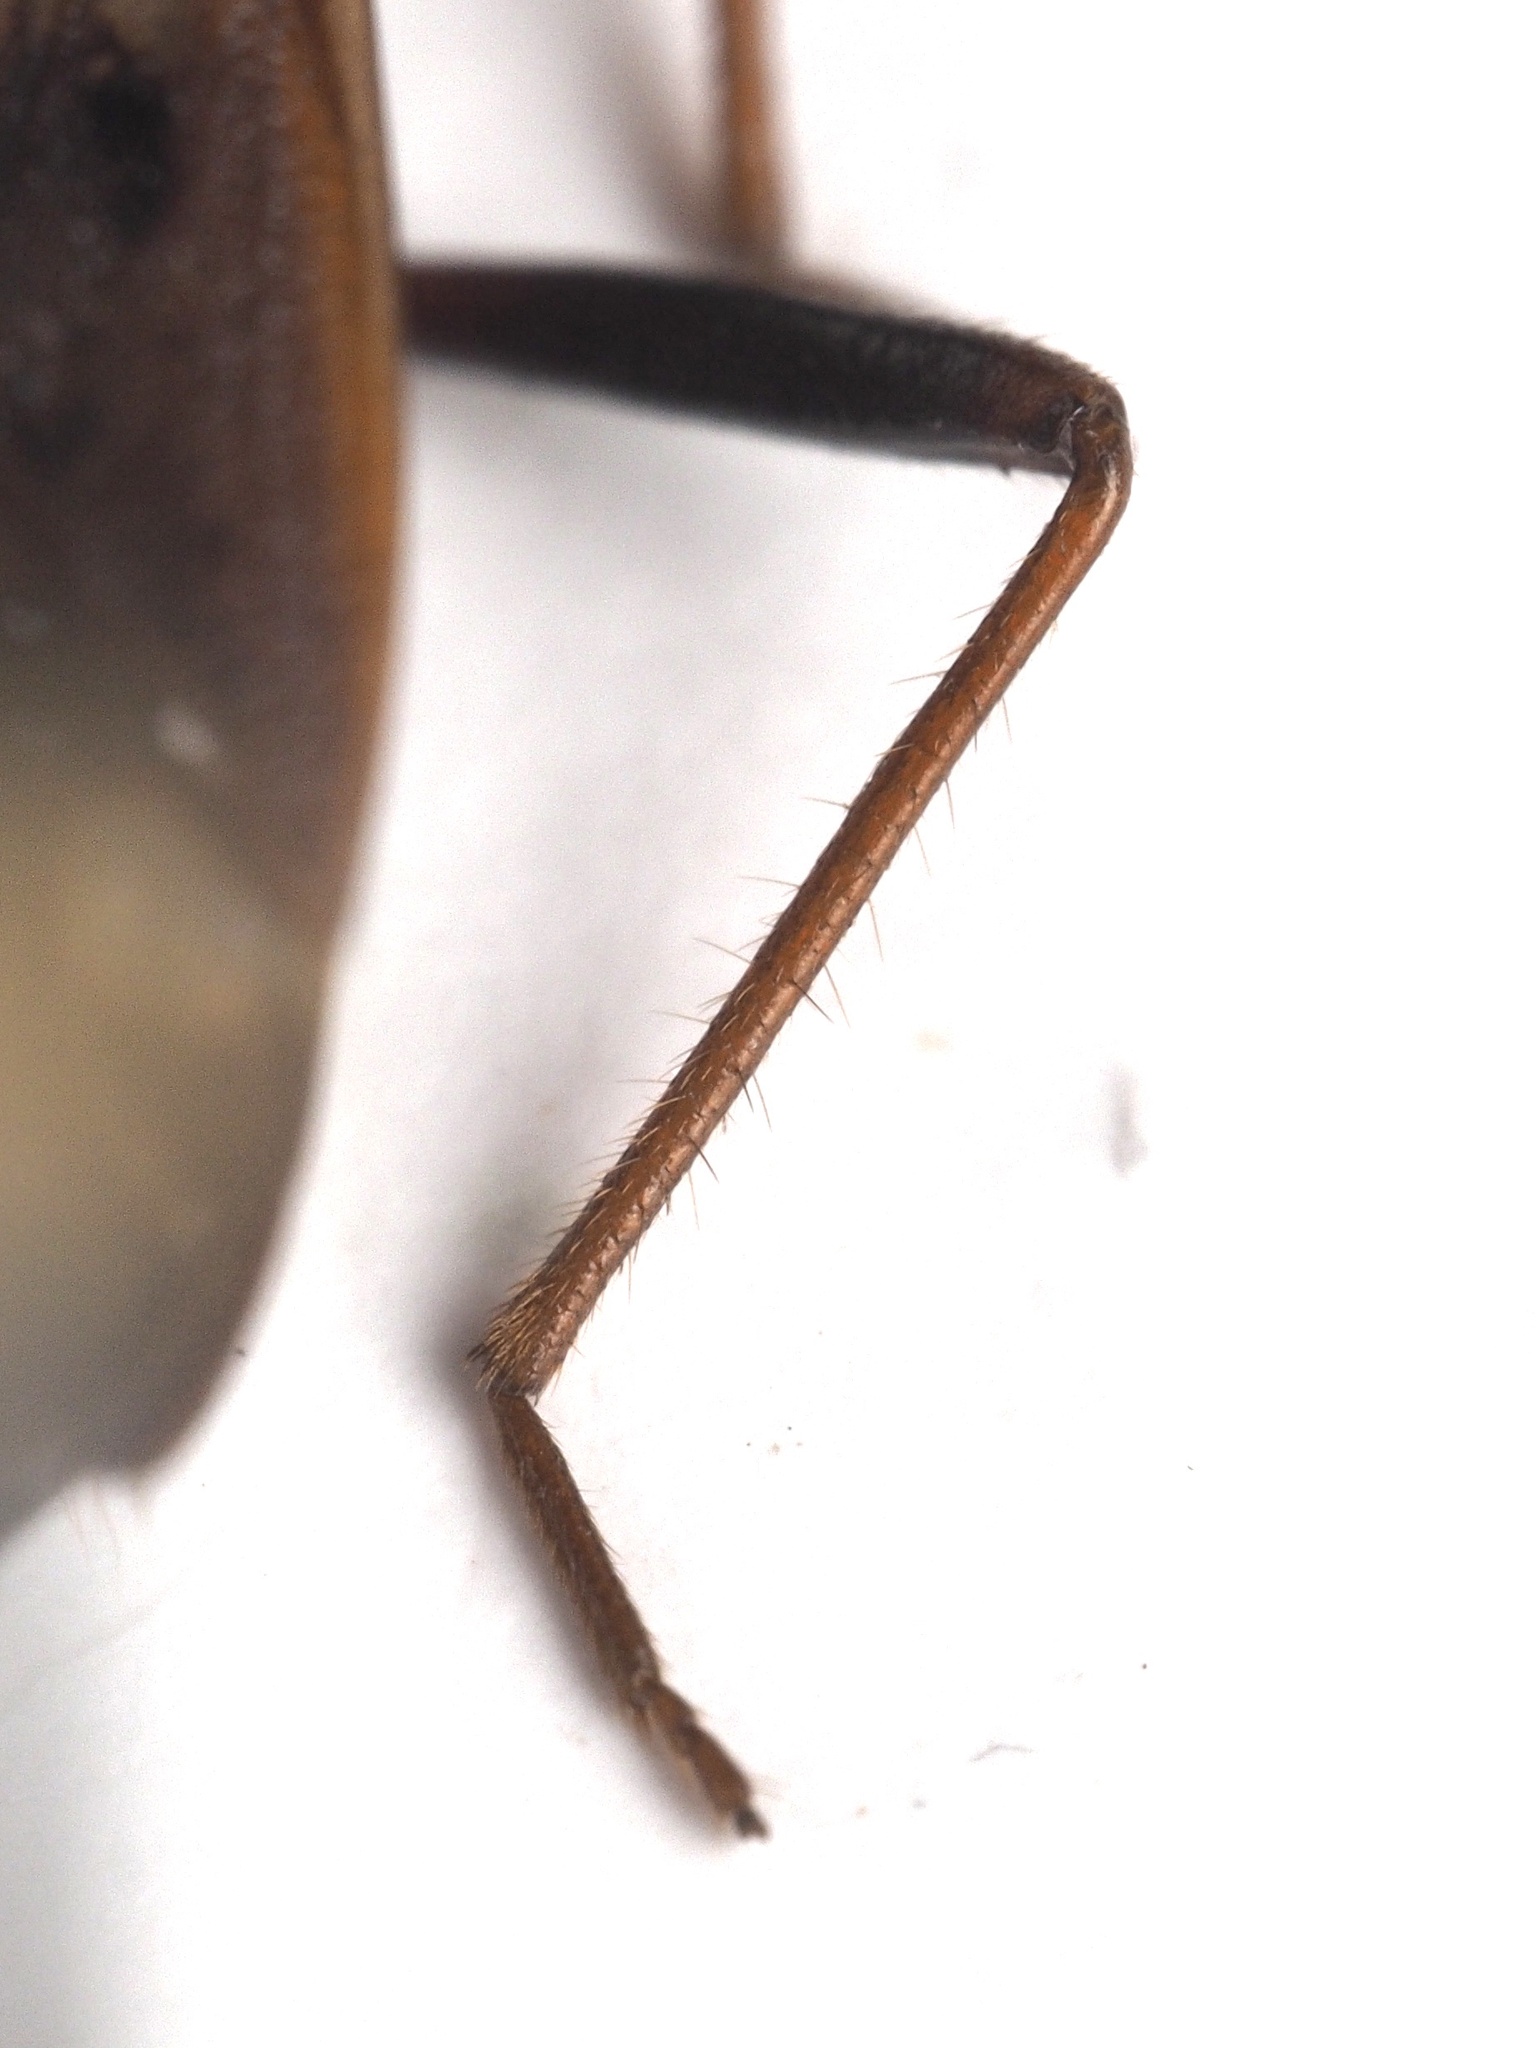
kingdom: Animalia
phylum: Arthropoda
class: Insecta
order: Hemiptera
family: Rhyparochromidae
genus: Eremocoris
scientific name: Eremocoris fenestratus
